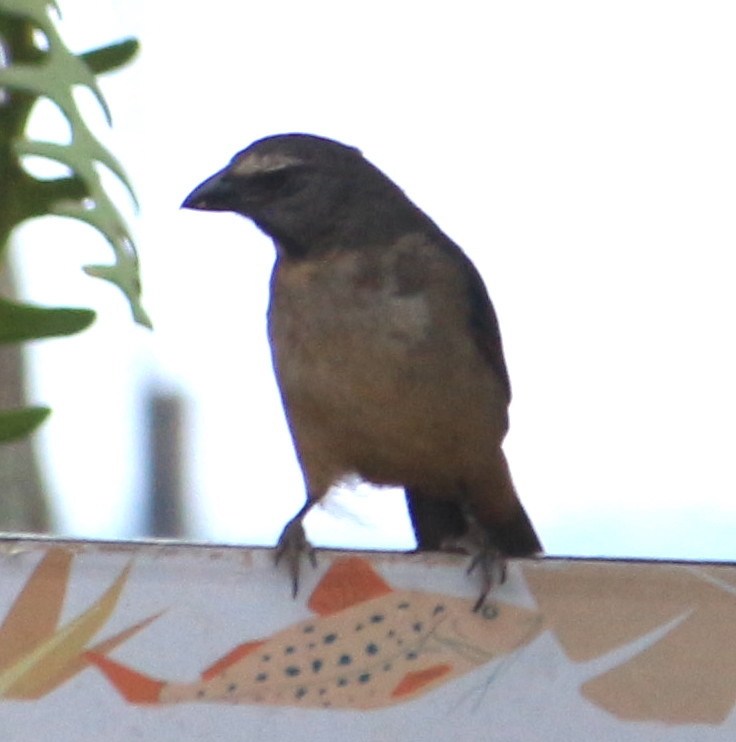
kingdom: Animalia
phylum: Chordata
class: Aves
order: Passeriformes
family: Thraupidae
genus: Saltator
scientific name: Saltator coerulescens
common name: Grayish saltator
